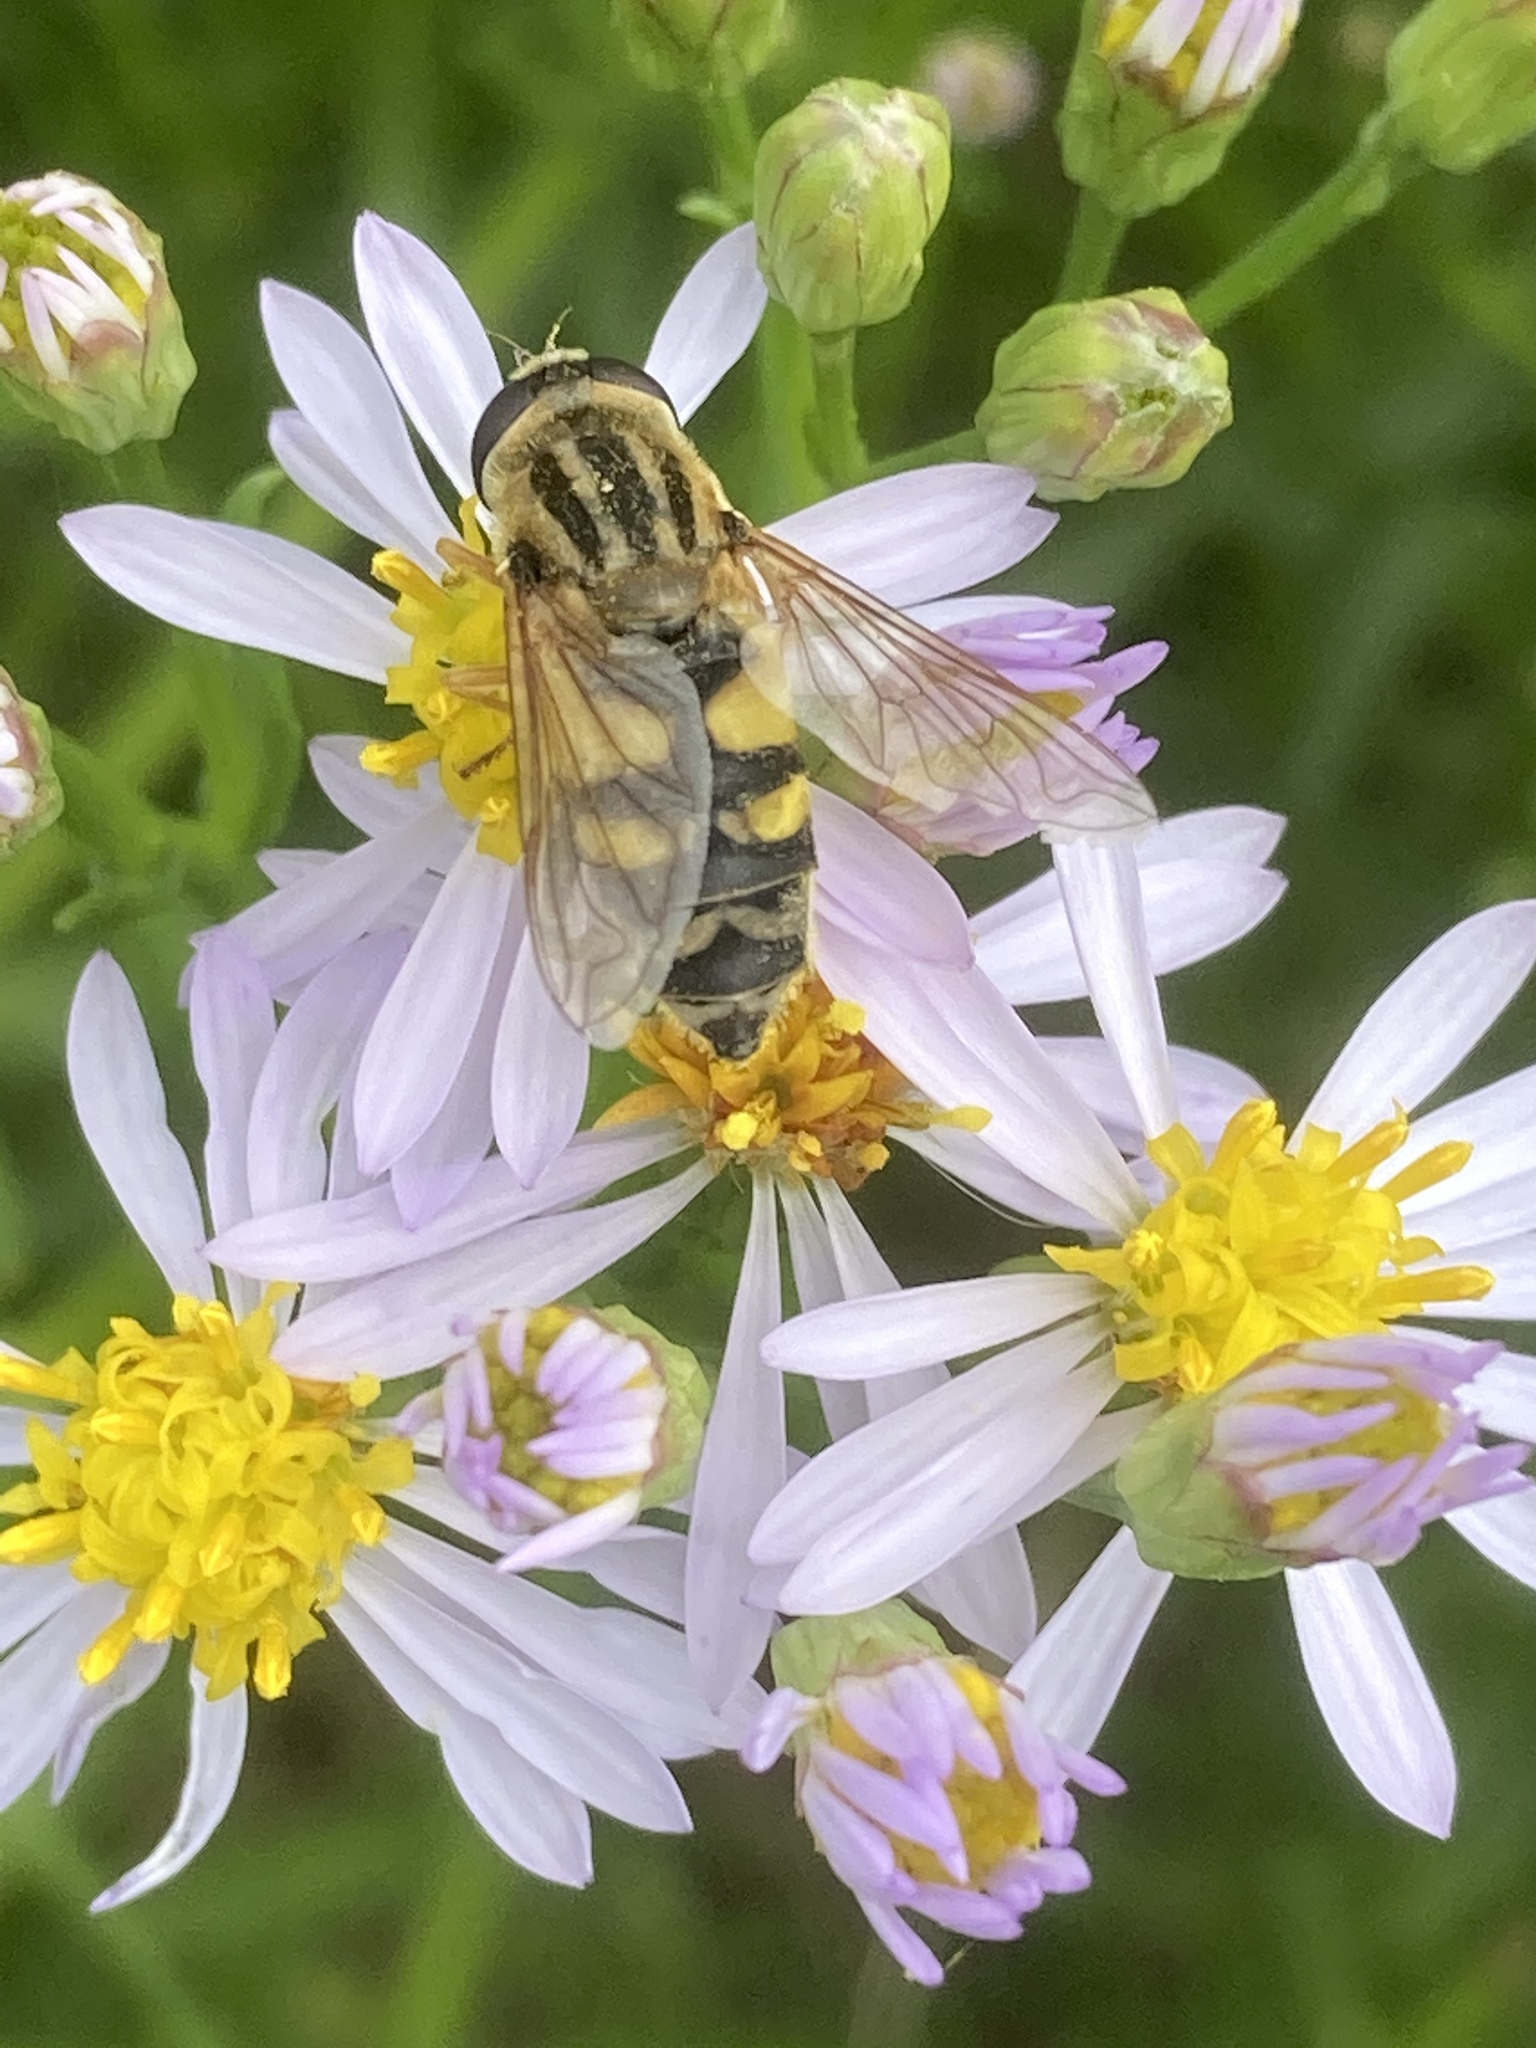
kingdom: Animalia
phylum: Arthropoda
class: Insecta
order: Diptera
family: Syrphidae
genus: Helophilus
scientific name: Helophilus trivittatus
